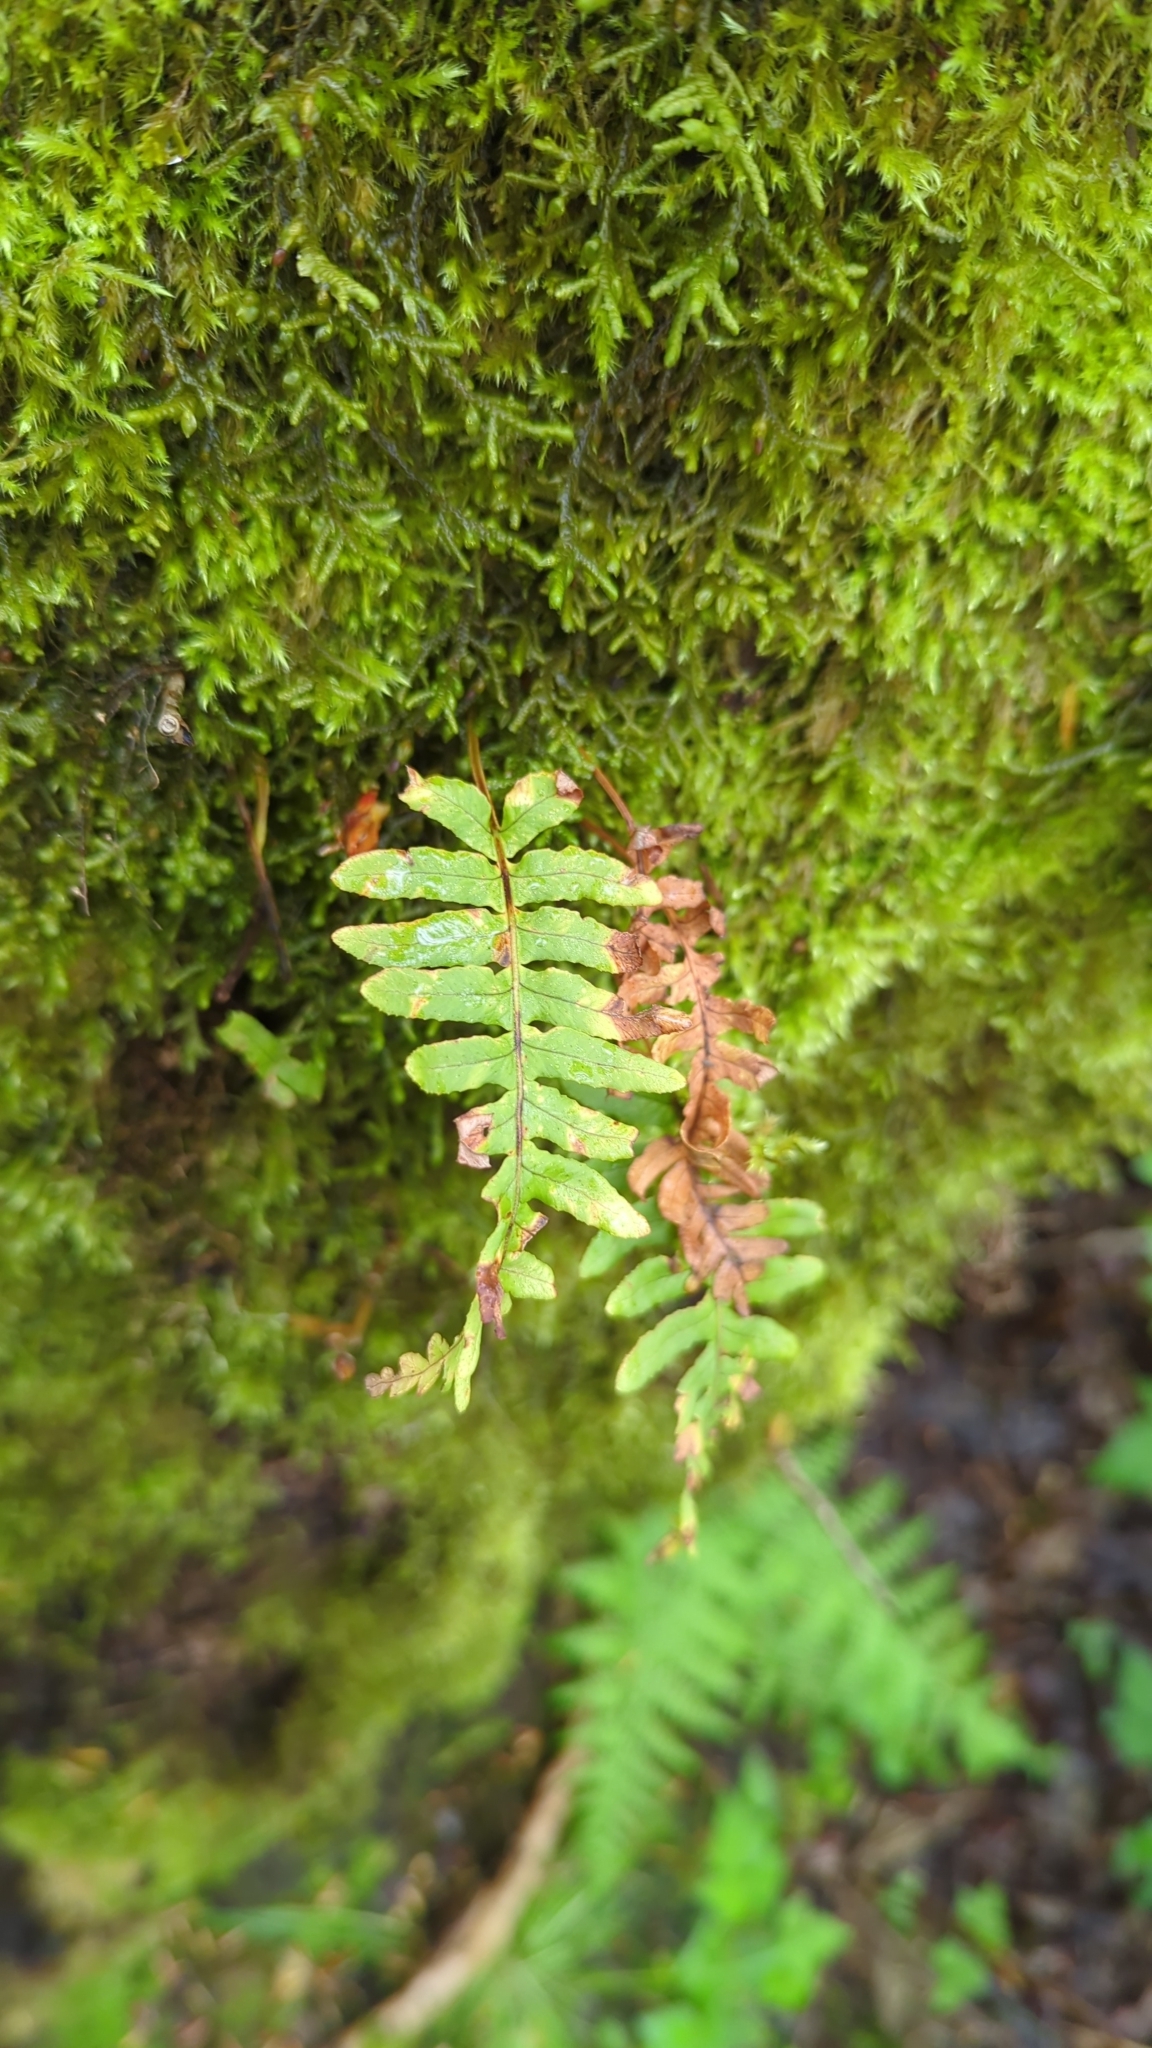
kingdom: Plantae
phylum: Tracheophyta
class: Polypodiopsida
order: Polypodiales
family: Polypodiaceae
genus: Polypodium
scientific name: Polypodium glycyrrhiza
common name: Licorice fern
